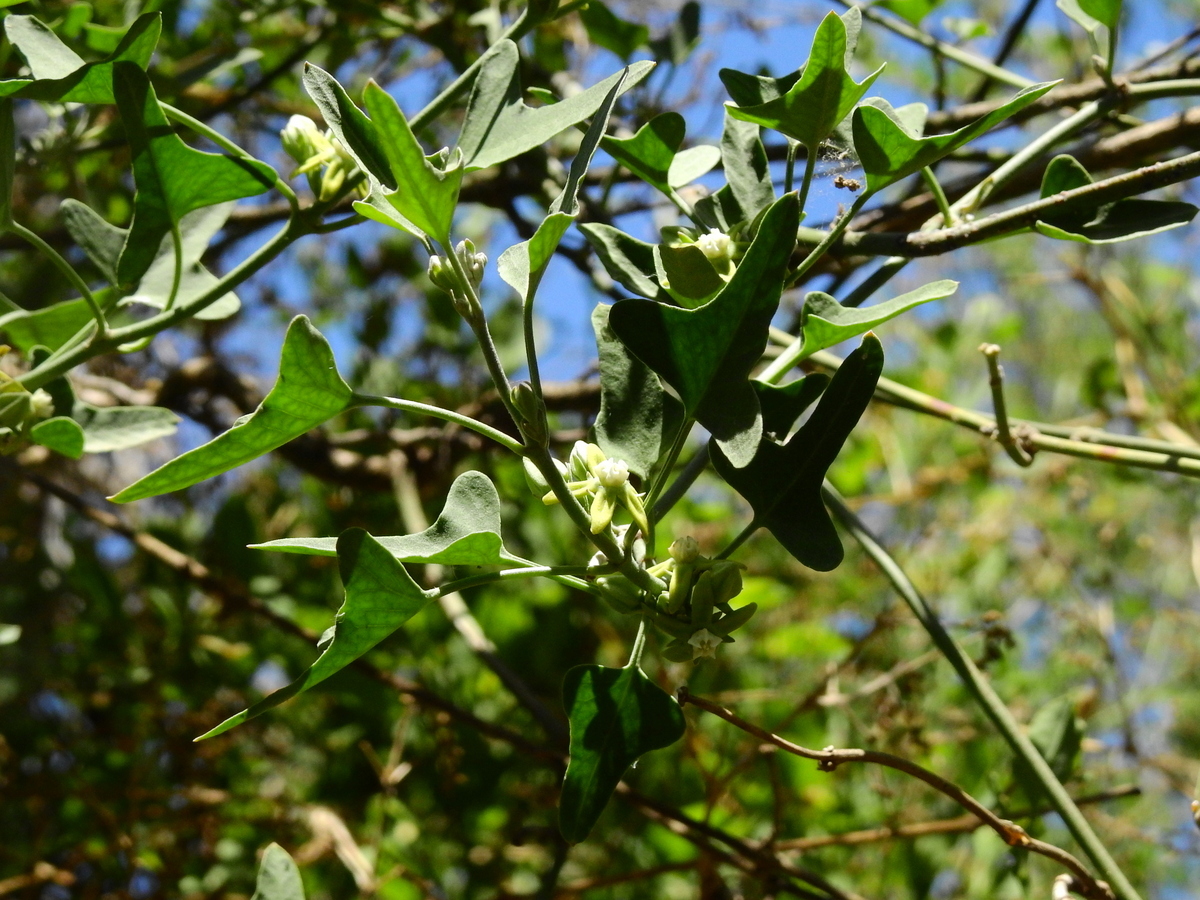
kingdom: Plantae
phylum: Tracheophyta
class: Magnoliopsida
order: Gentianales
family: Apocynaceae
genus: Araujia
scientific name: Araujia brachystephana
